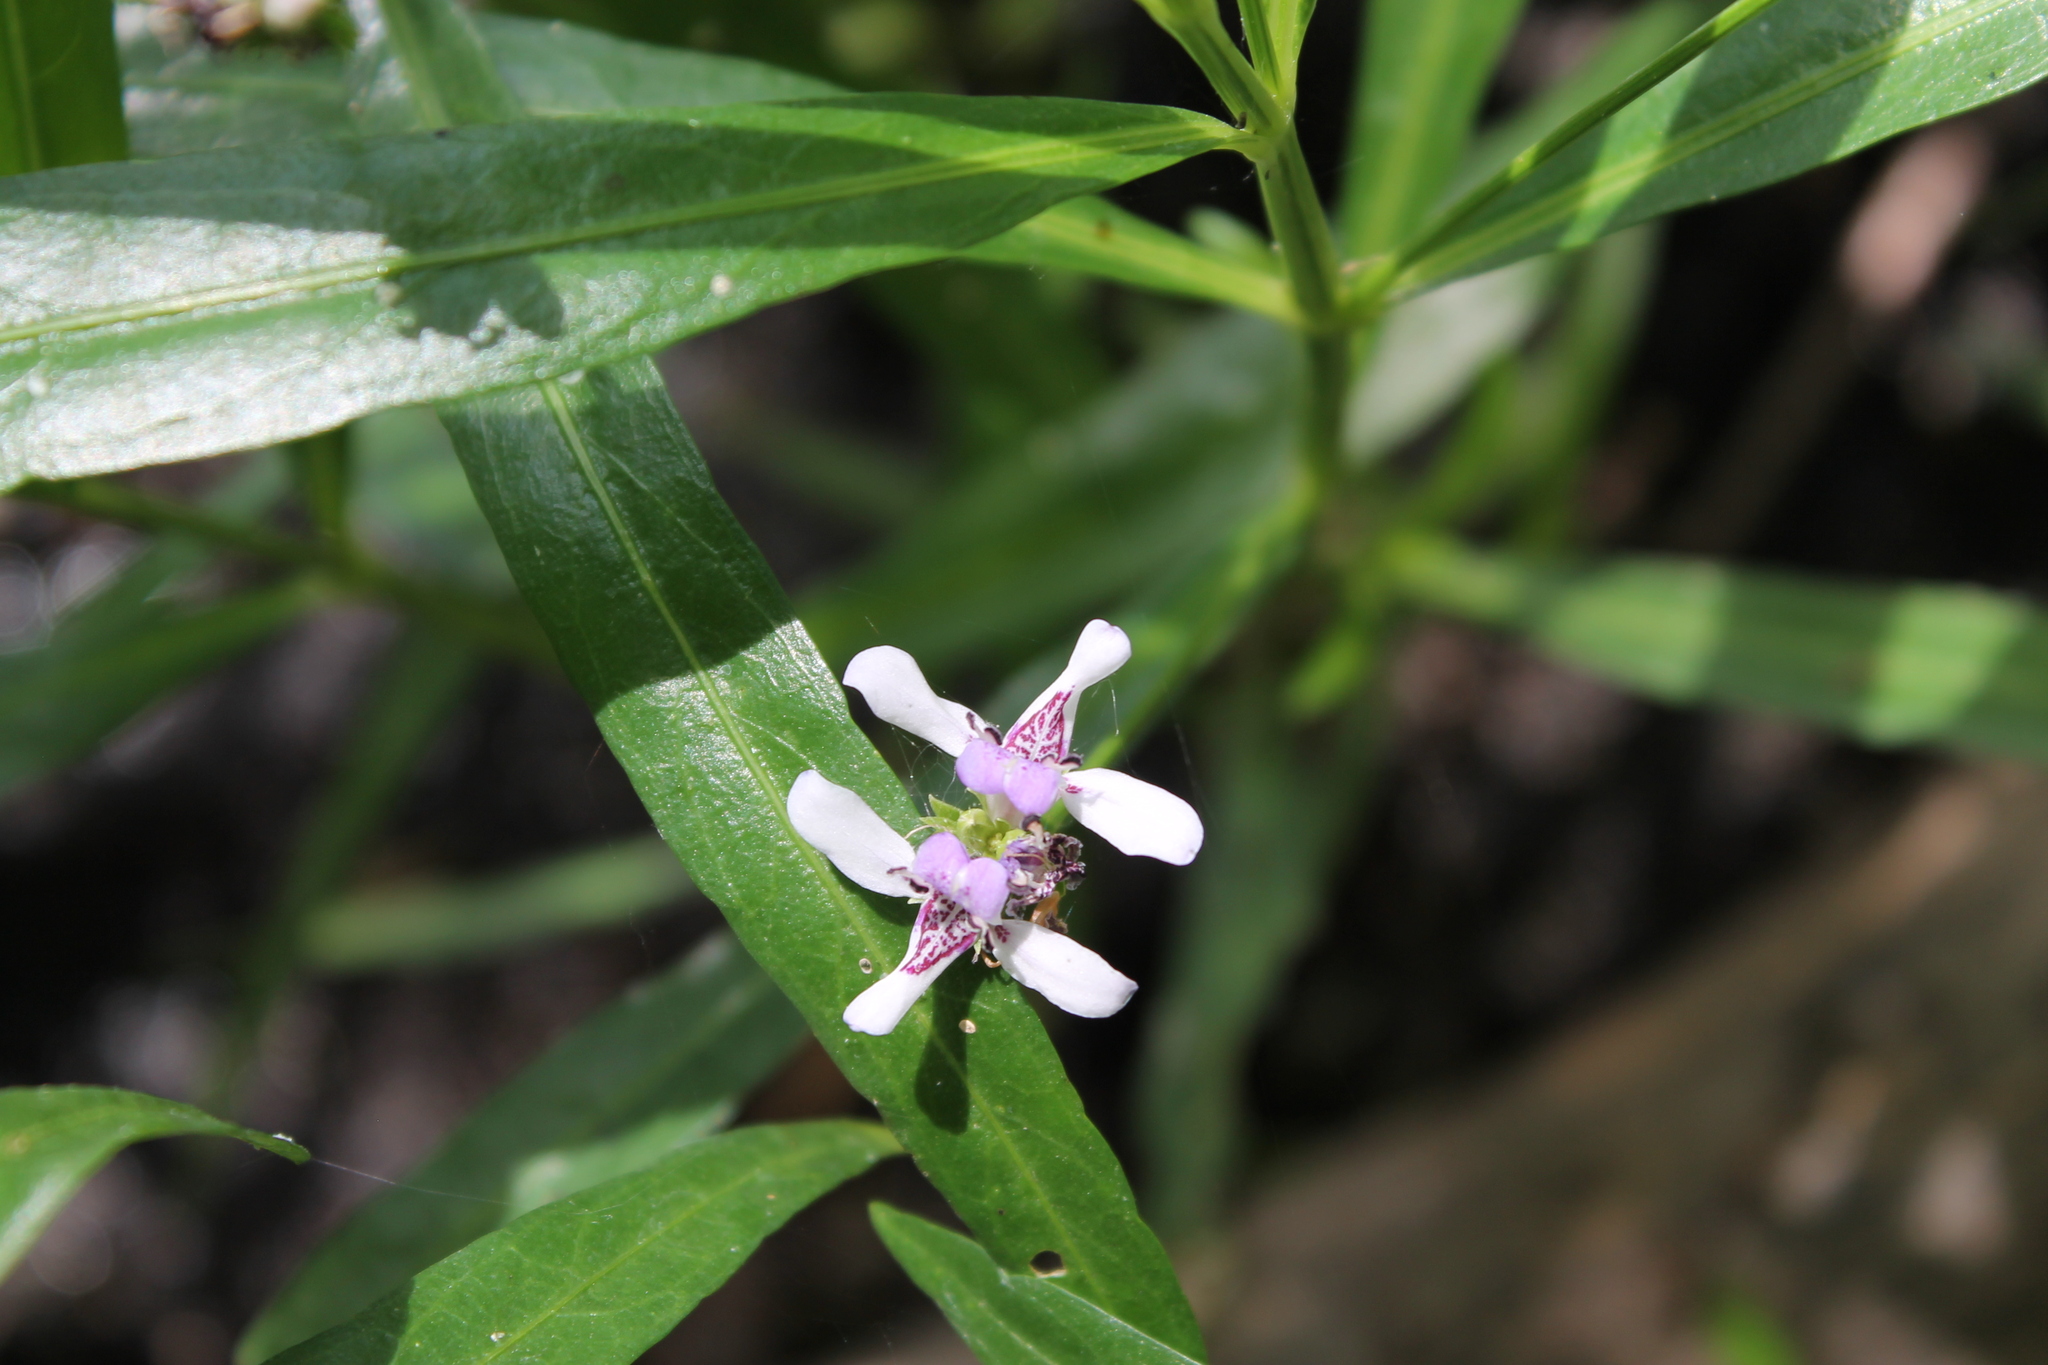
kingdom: Plantae
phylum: Tracheophyta
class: Magnoliopsida
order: Lamiales
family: Acanthaceae
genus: Dianthera
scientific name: Dianthera americana
